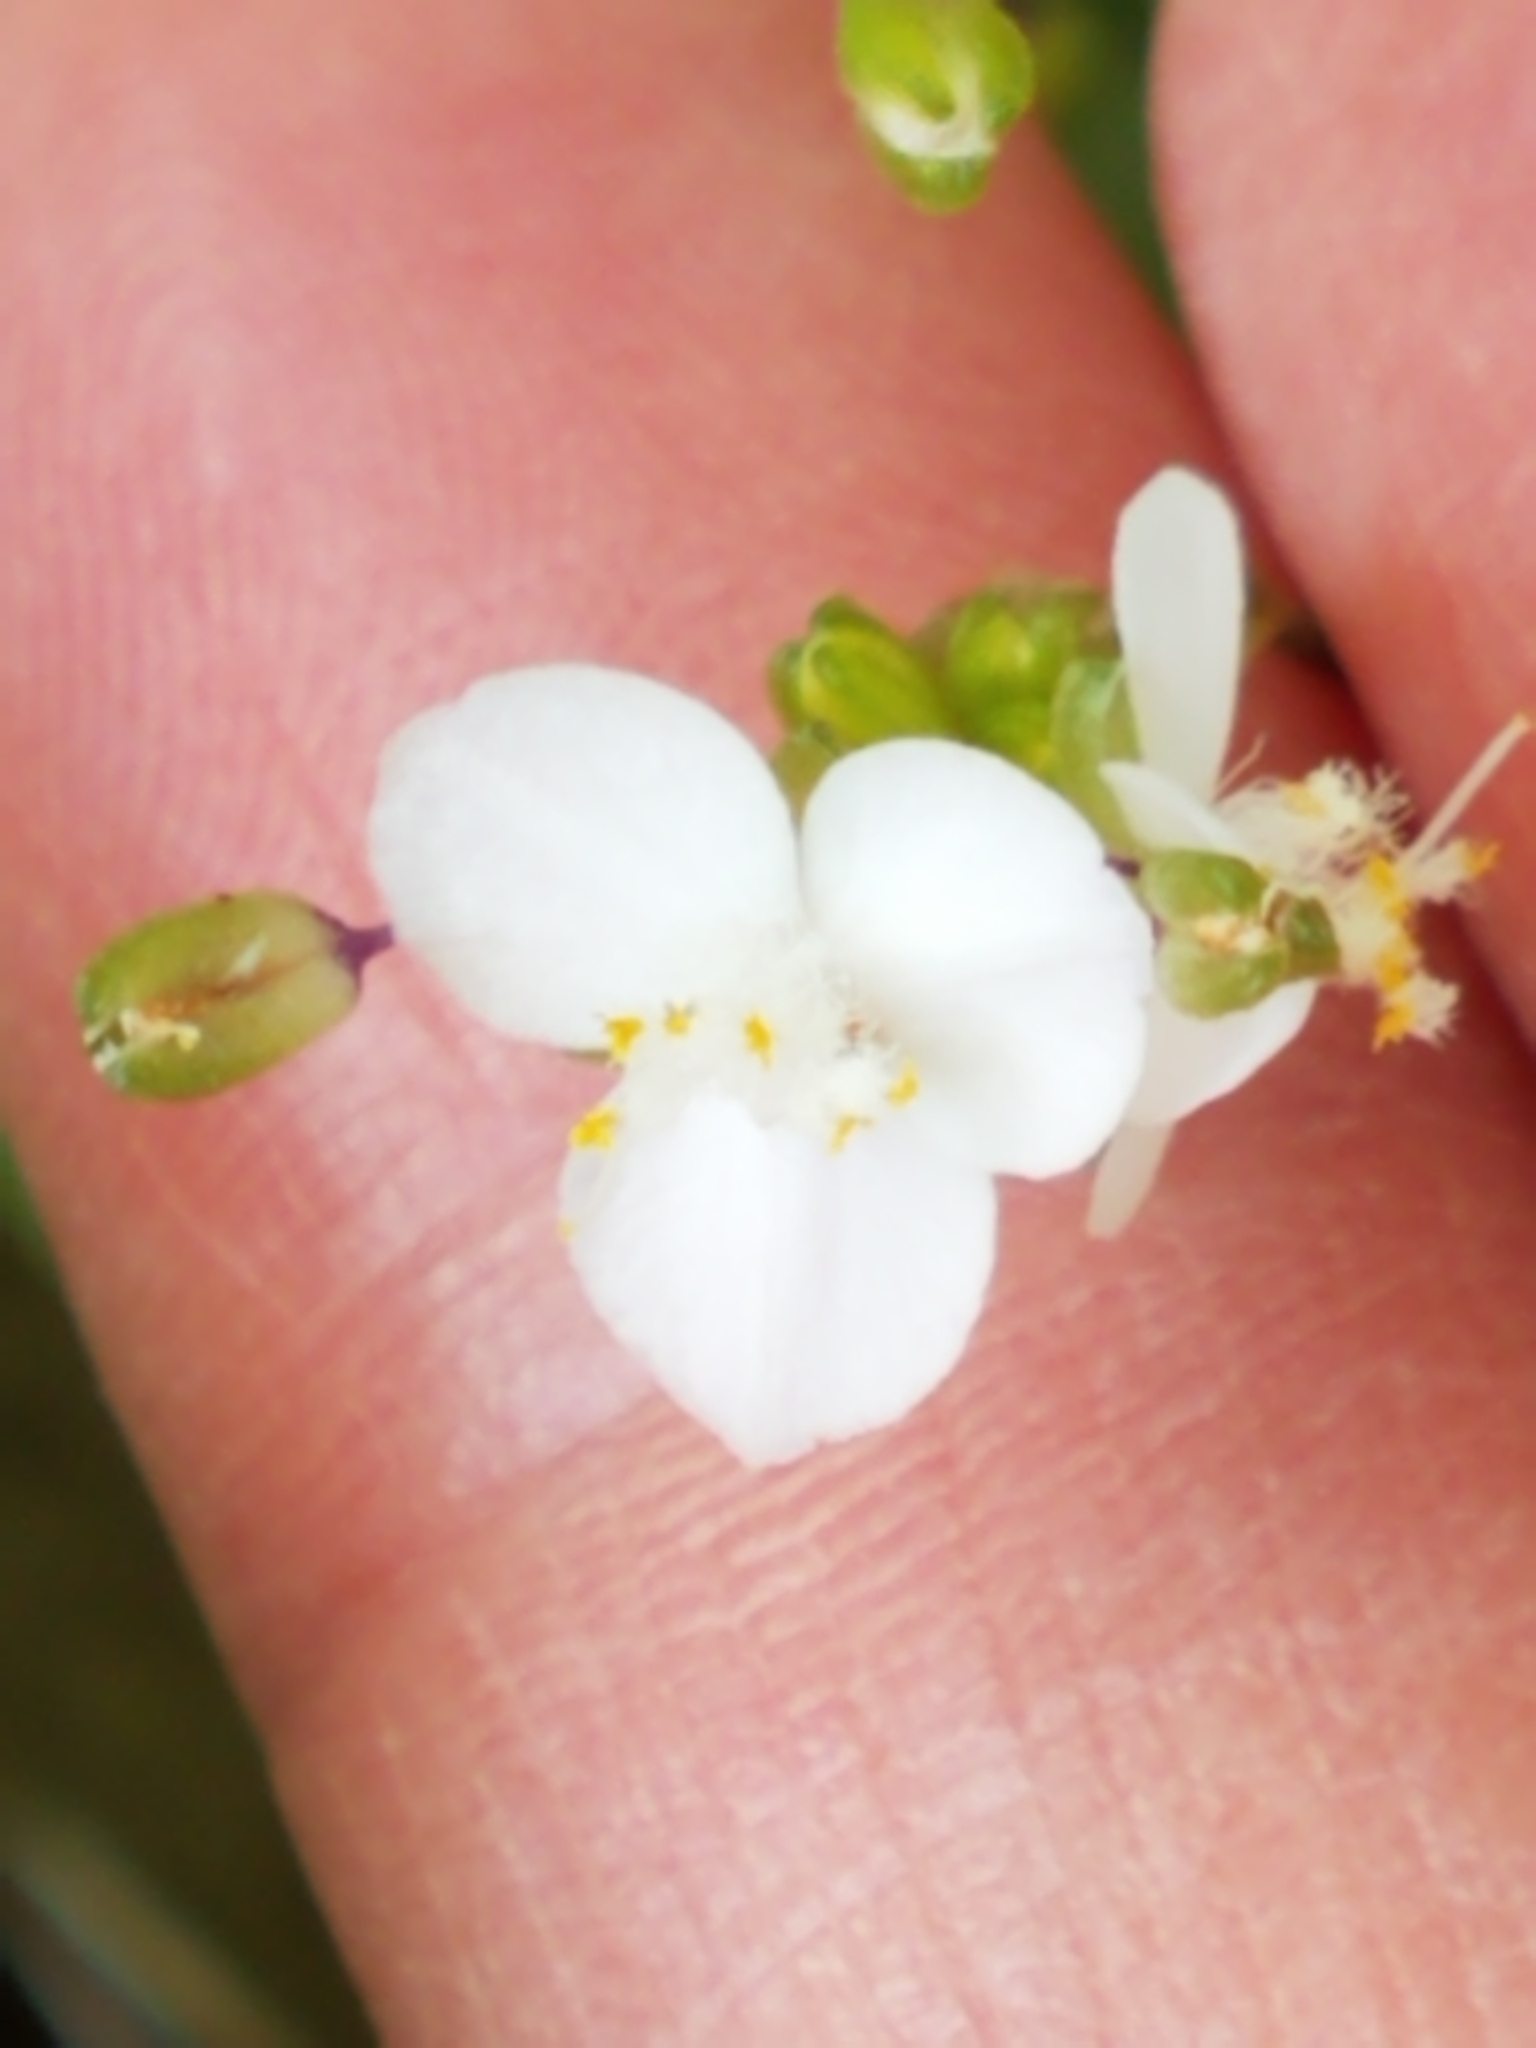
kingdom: Plantae
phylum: Tracheophyta
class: Liliopsida
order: Commelinales
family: Commelinaceae
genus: Gibasis
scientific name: Gibasis pellucida
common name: Dotted bridalveil
